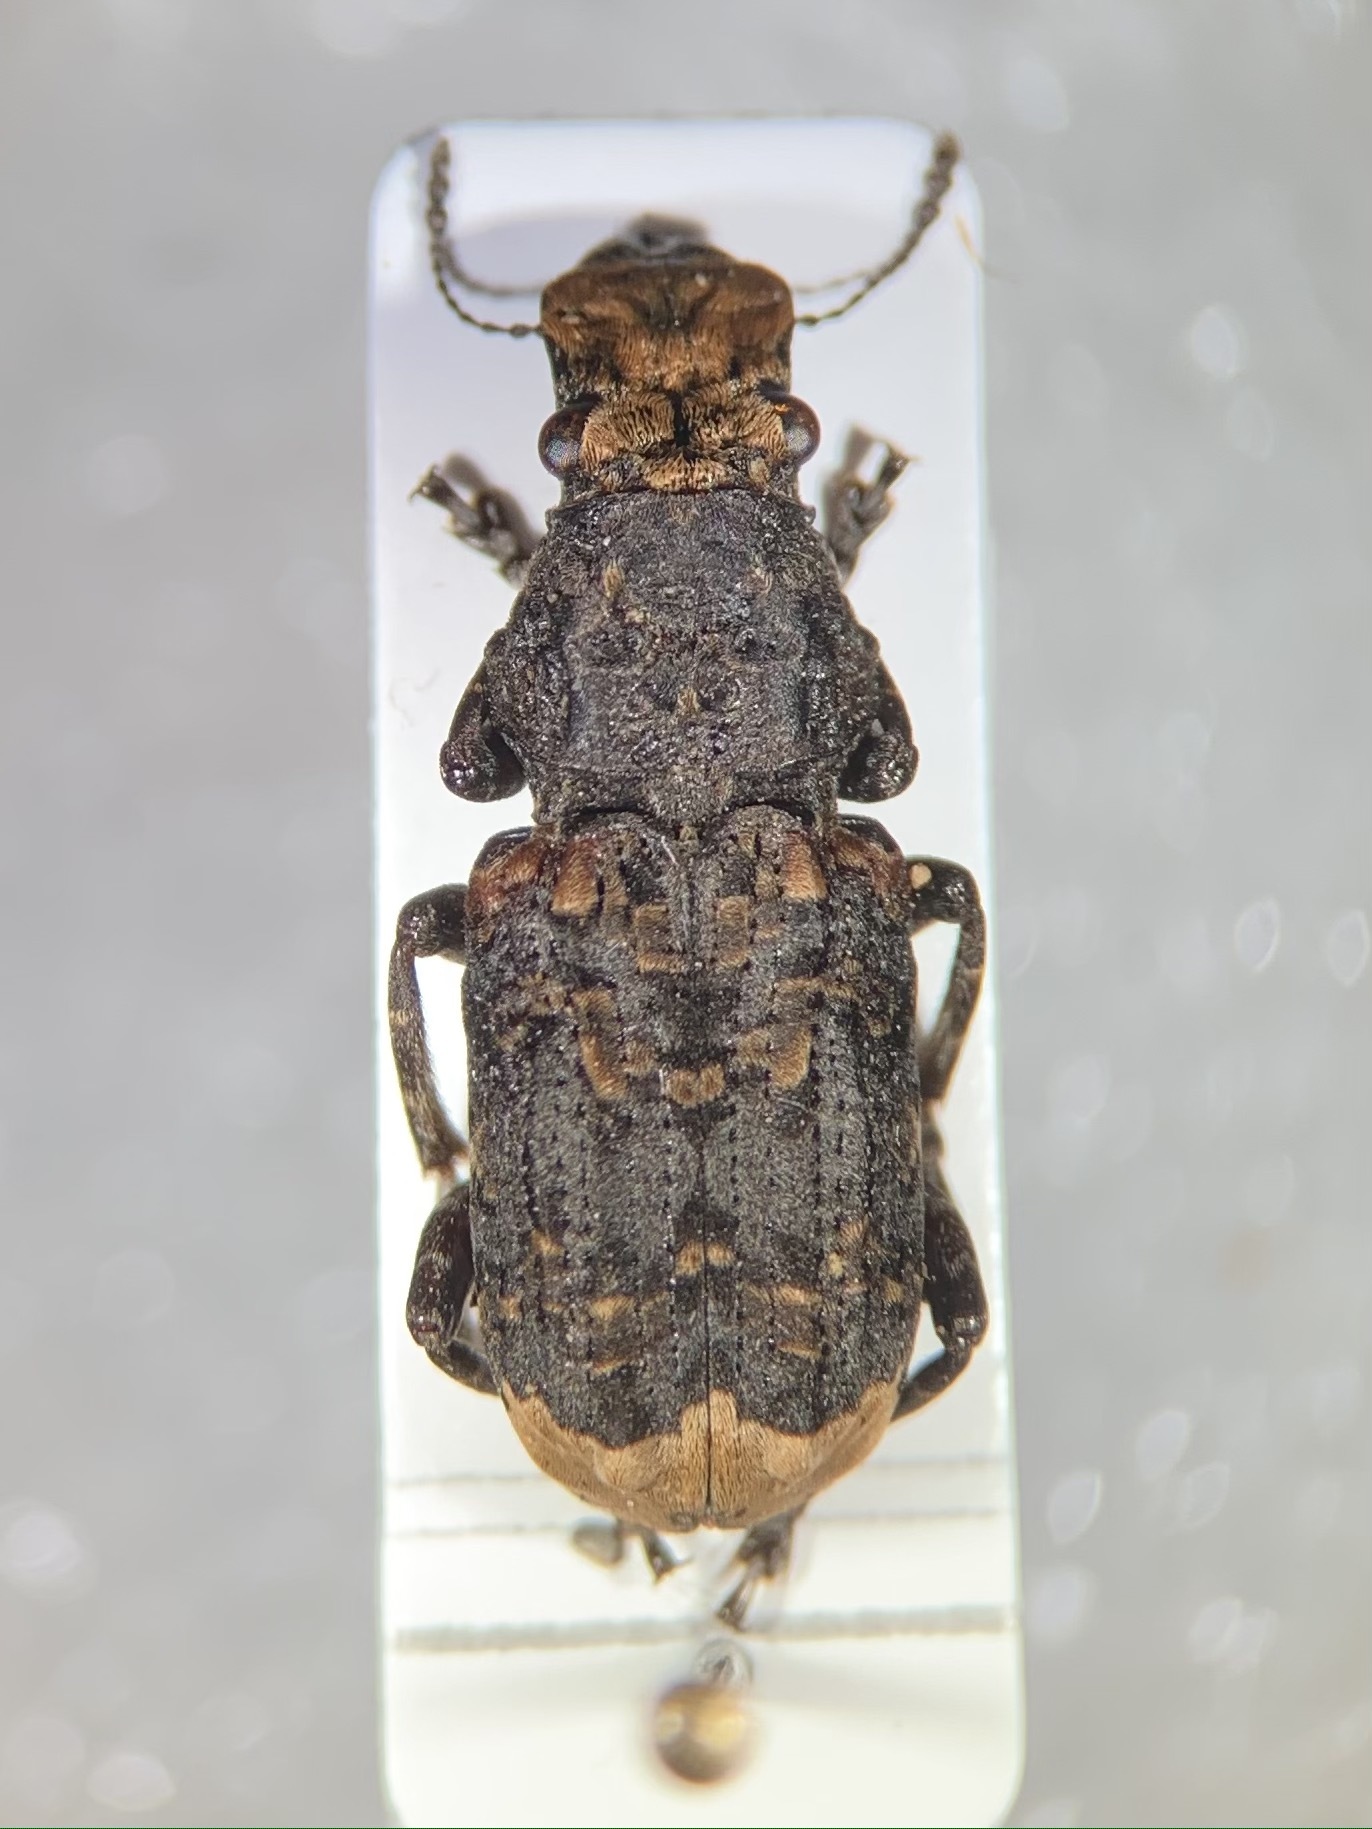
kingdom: Animalia
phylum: Arthropoda
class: Insecta
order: Coleoptera
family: Anthribidae
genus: Platyrhinus
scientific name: Platyrhinus resinosus
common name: Cramp-ball fungus weevil
